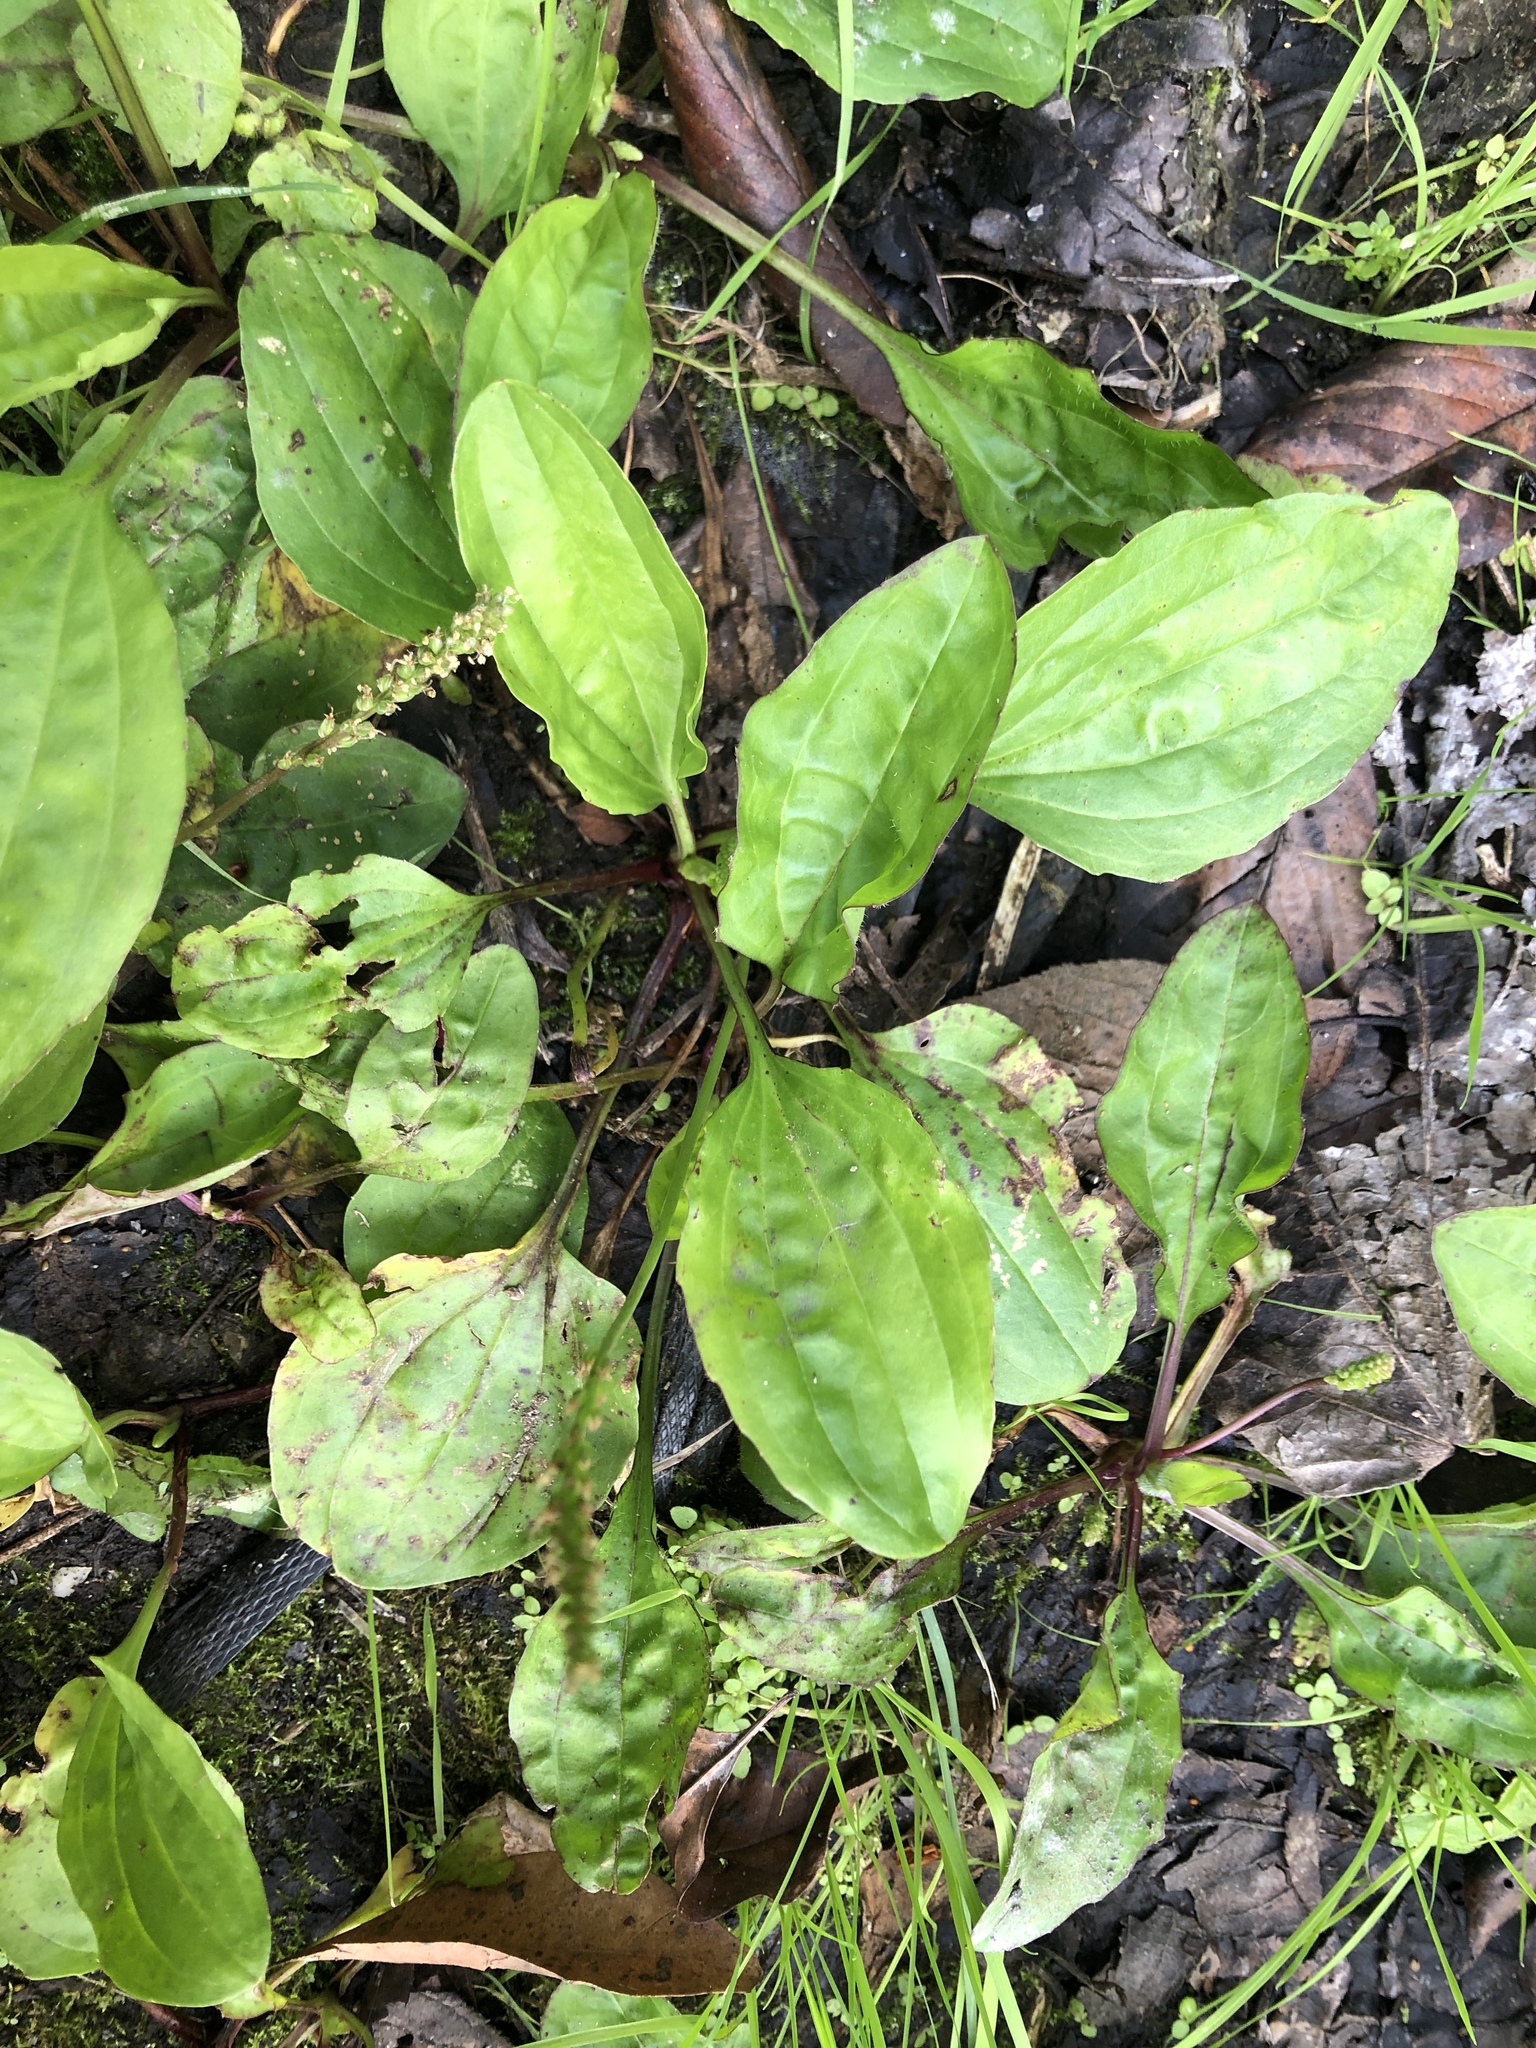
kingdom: Plantae
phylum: Tracheophyta
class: Magnoliopsida
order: Lamiales
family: Plantaginaceae
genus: Plantago
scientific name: Plantago asiatica
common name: Psyllium
